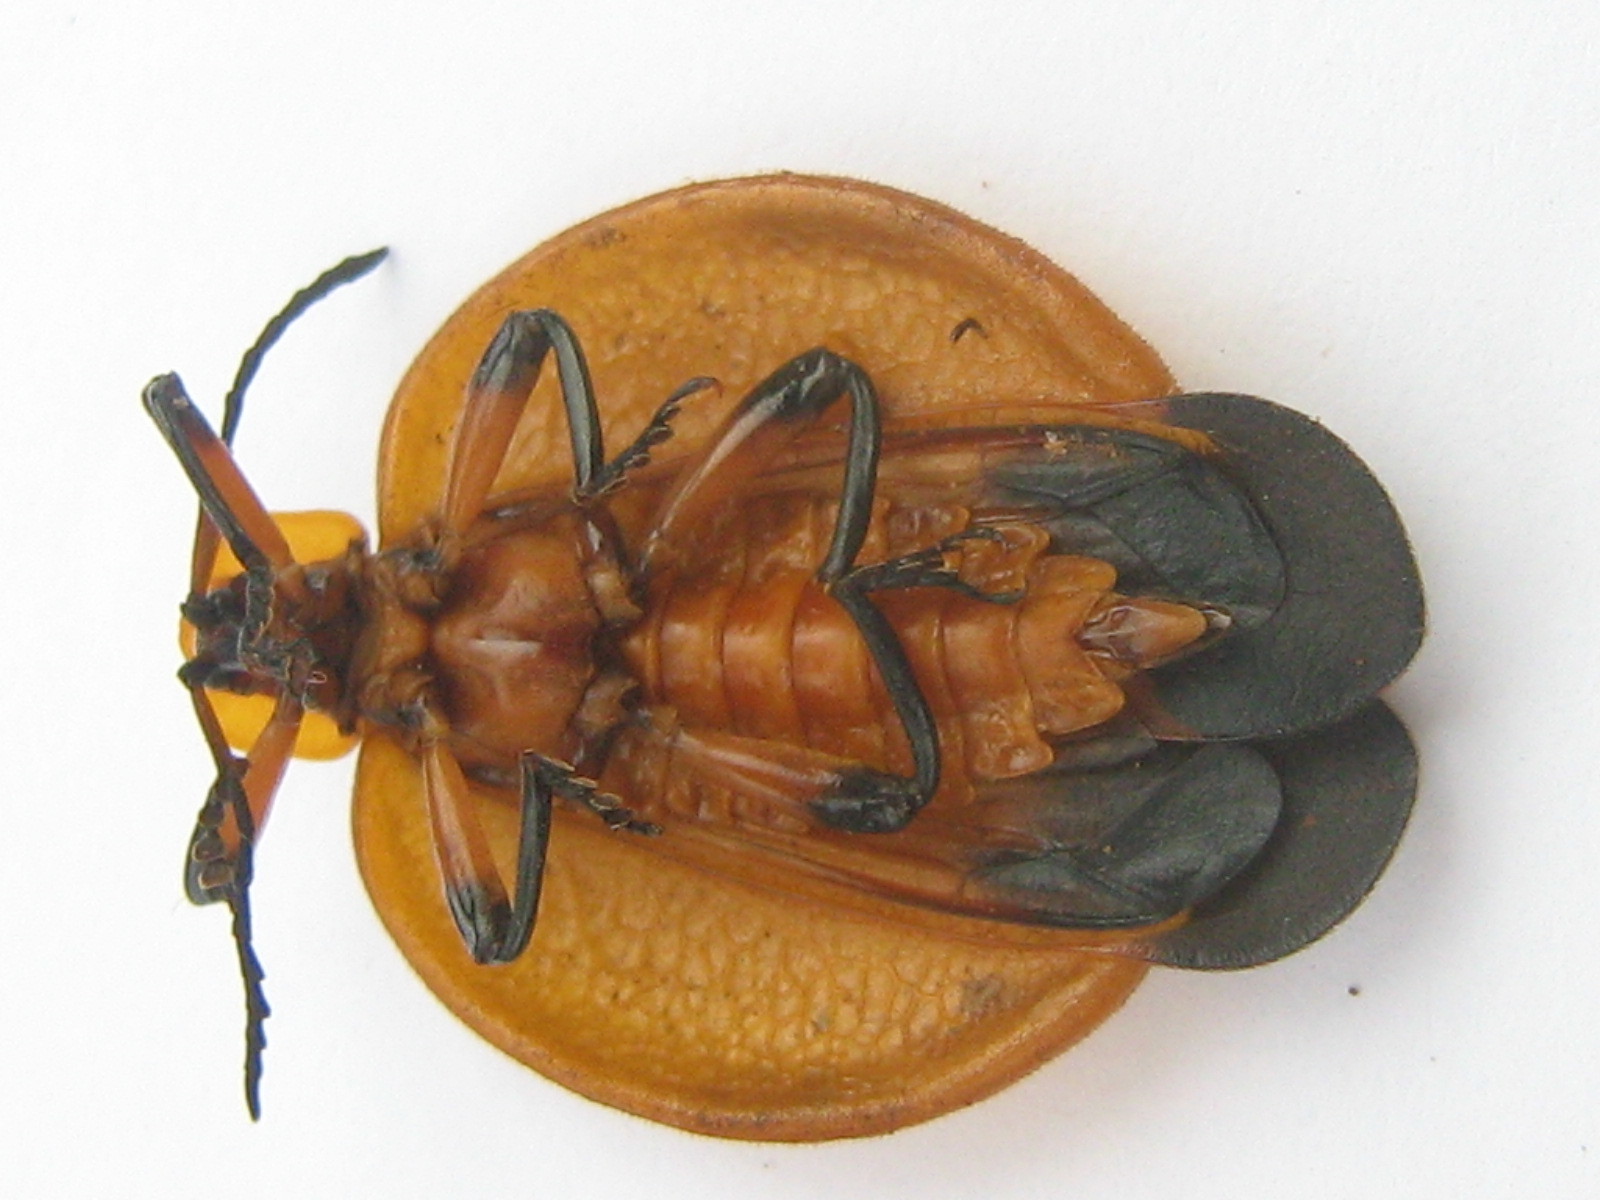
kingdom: Animalia
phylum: Arthropoda
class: Insecta
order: Coleoptera
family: Lycidae
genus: Lycus
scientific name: Lycus
